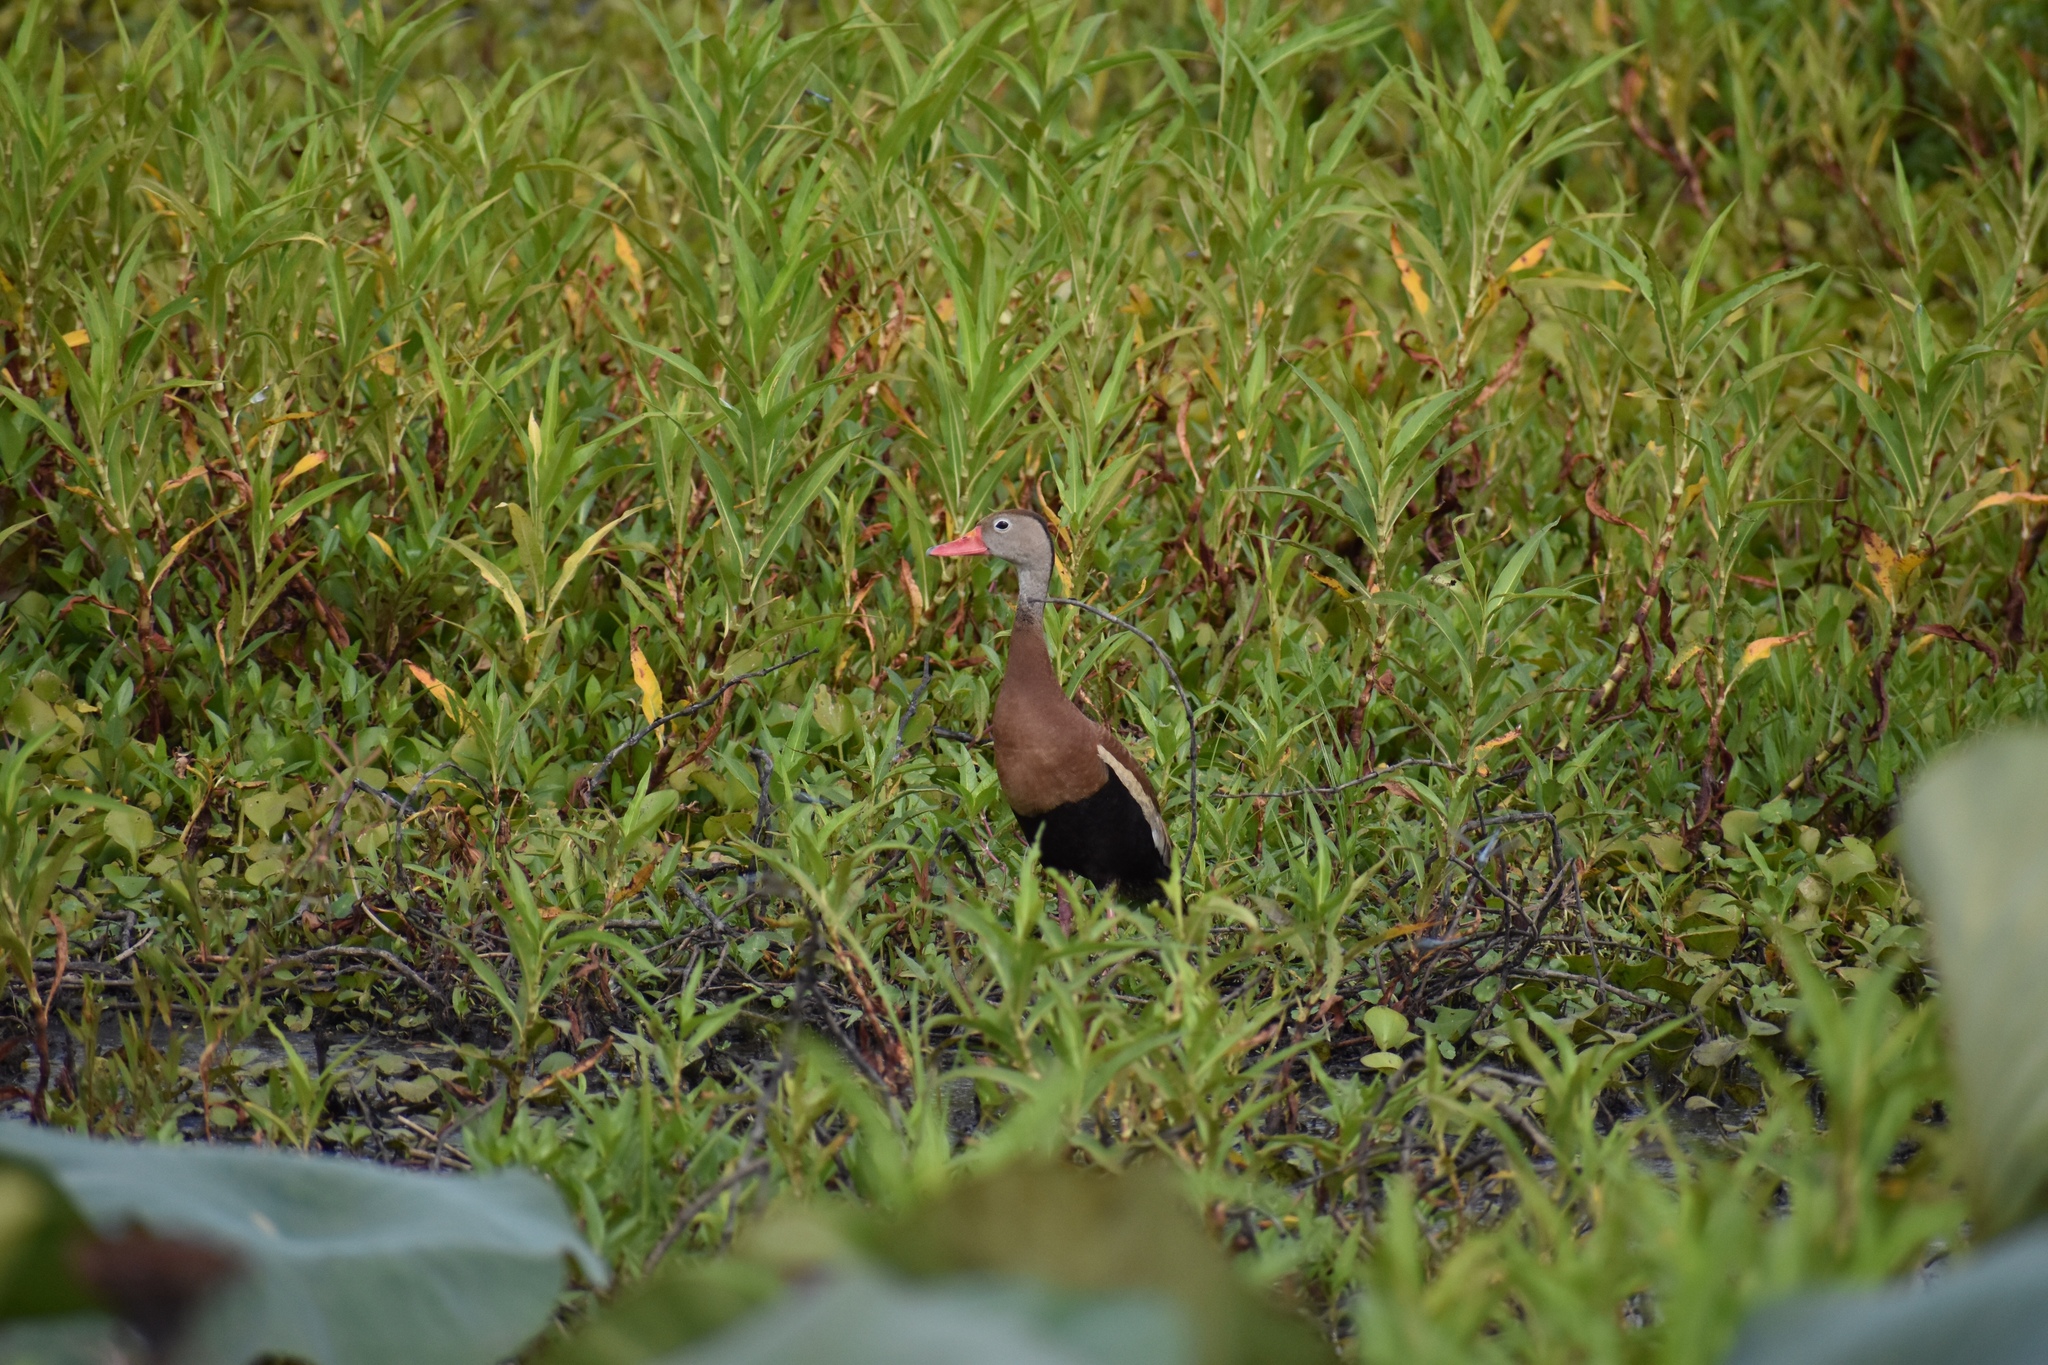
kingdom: Animalia
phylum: Chordata
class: Aves
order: Anseriformes
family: Anatidae
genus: Dendrocygna
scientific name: Dendrocygna autumnalis
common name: Black-bellied whistling duck
